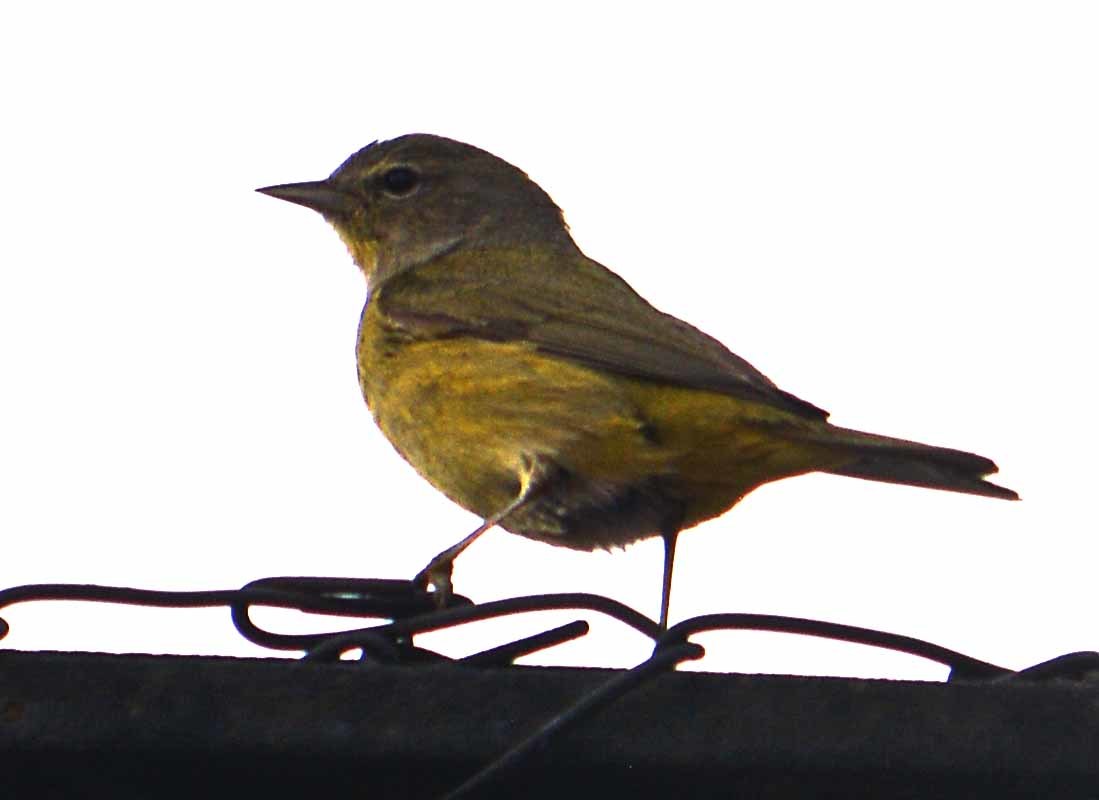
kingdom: Animalia
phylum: Chordata
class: Aves
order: Passeriformes
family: Parulidae
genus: Leiothlypis
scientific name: Leiothlypis celata
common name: Orange-crowned warbler
